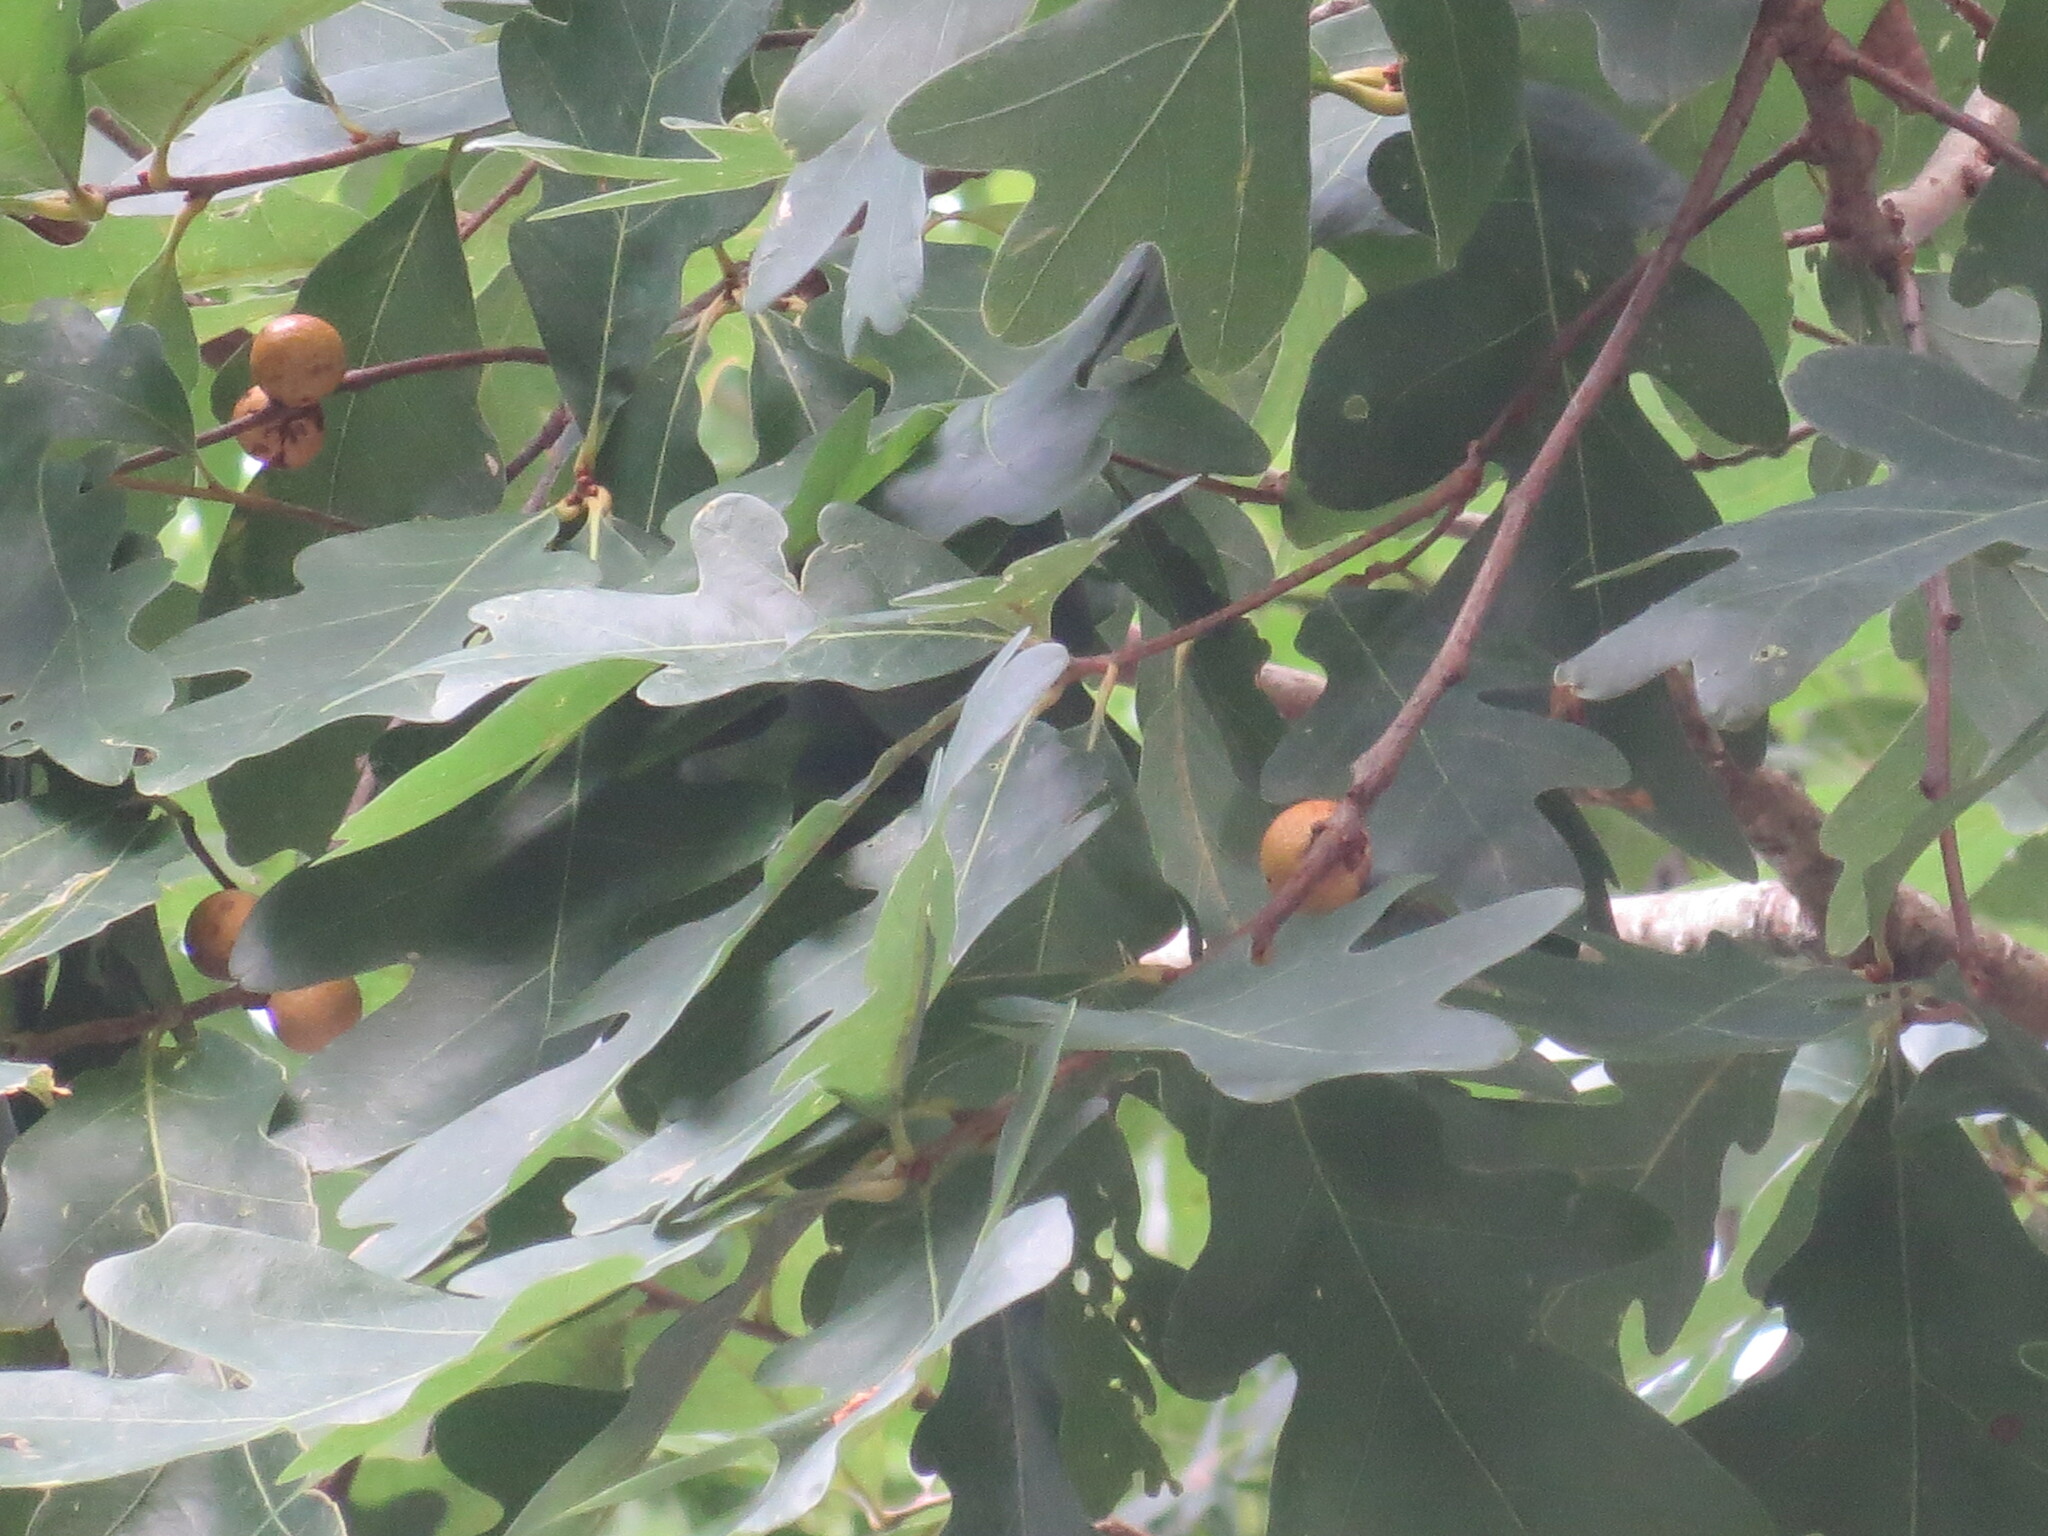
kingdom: Animalia
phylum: Arthropoda
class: Insecta
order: Hymenoptera
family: Cynipidae
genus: Disholcaspis
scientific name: Disholcaspis quercusglobulus
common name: Round bullet gall wasp
